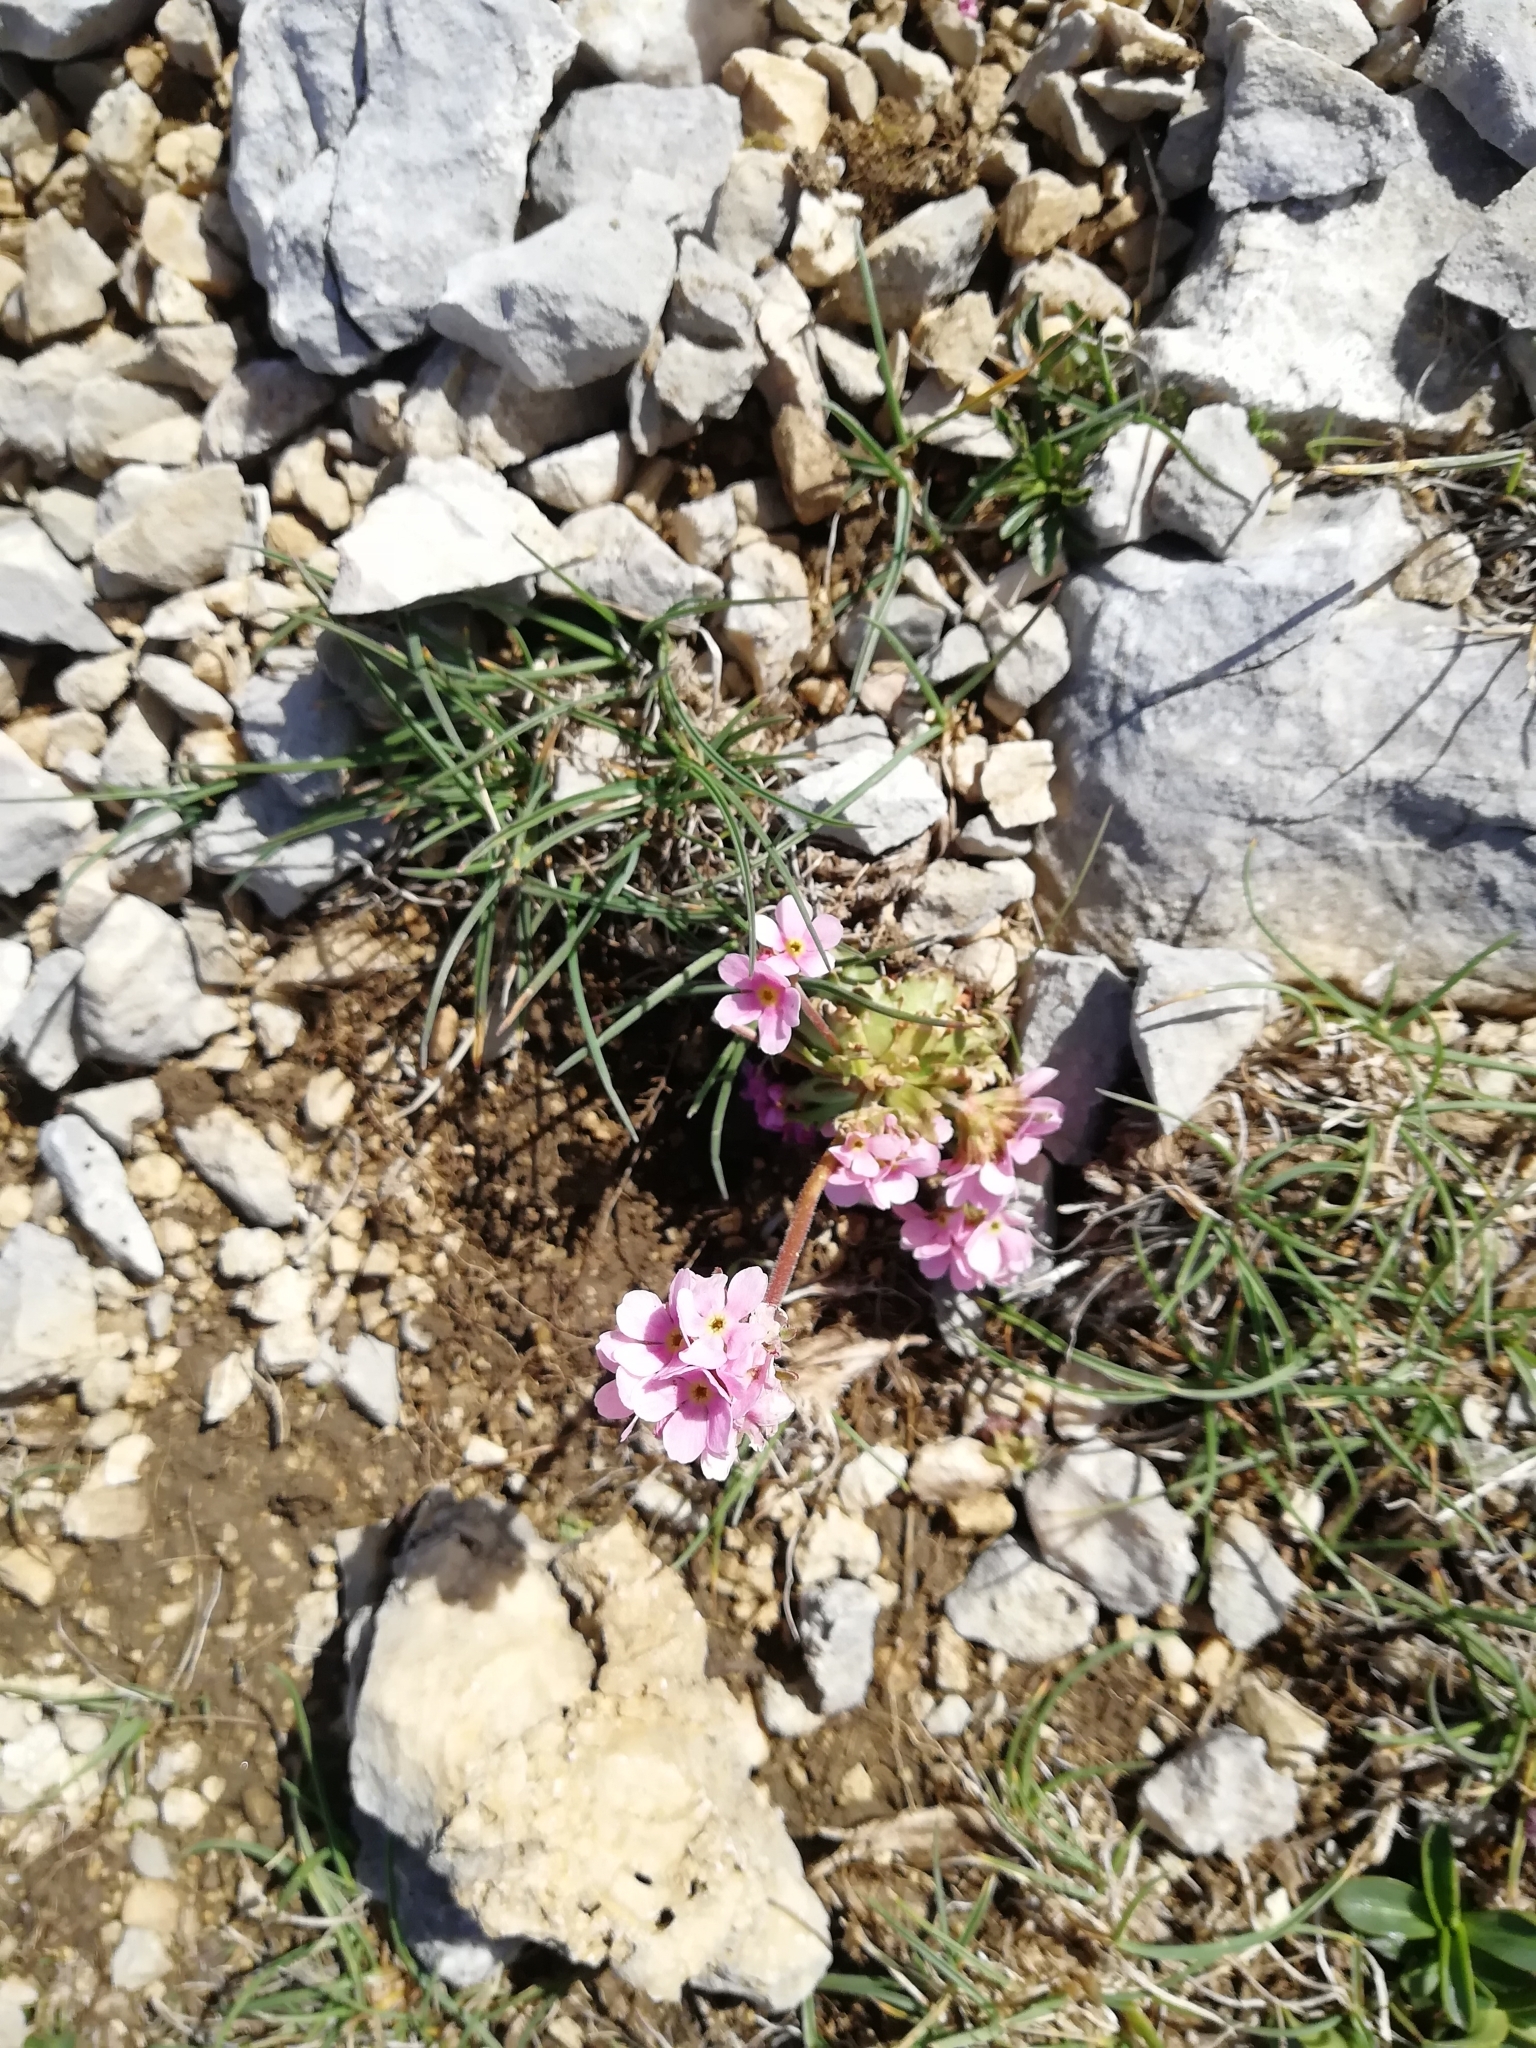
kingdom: Plantae
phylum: Tracheophyta
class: Magnoliopsida
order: Ericales
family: Primulaceae
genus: Androsace
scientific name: Androsace albana
